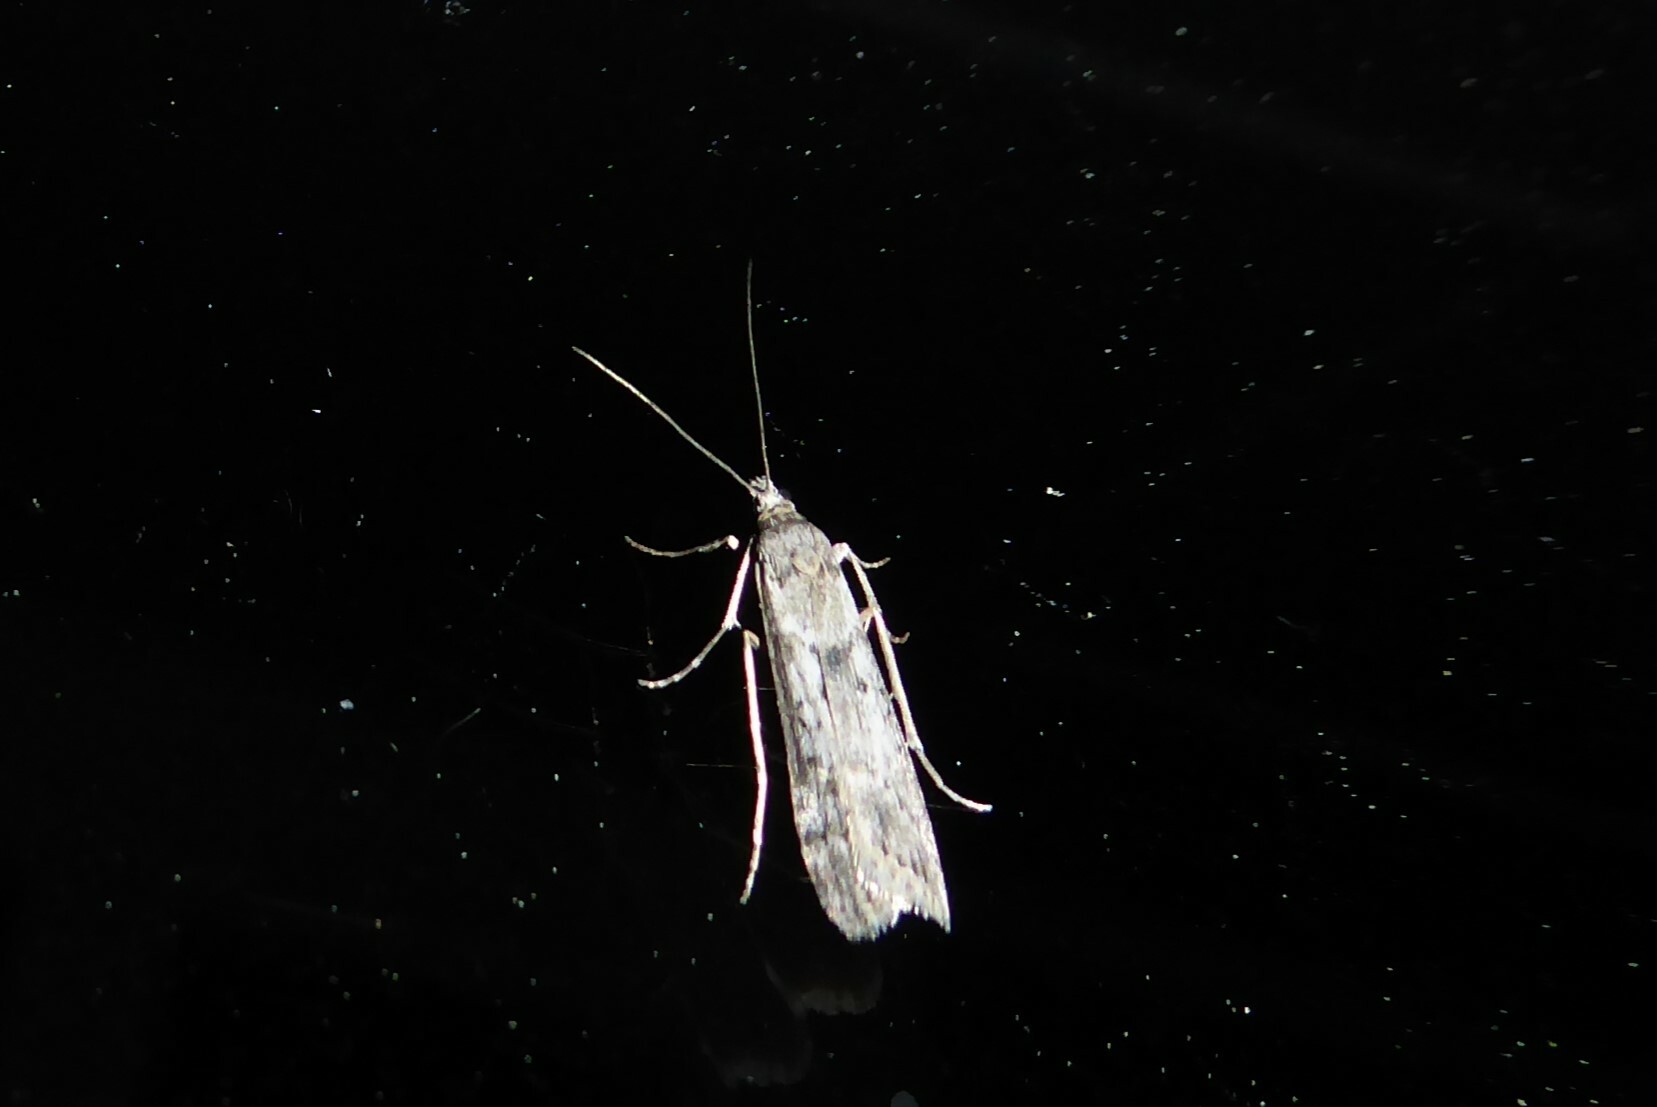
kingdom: Animalia
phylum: Arthropoda
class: Insecta
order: Lepidoptera
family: Crambidae
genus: Eudonia
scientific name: Eudonia leptalea
